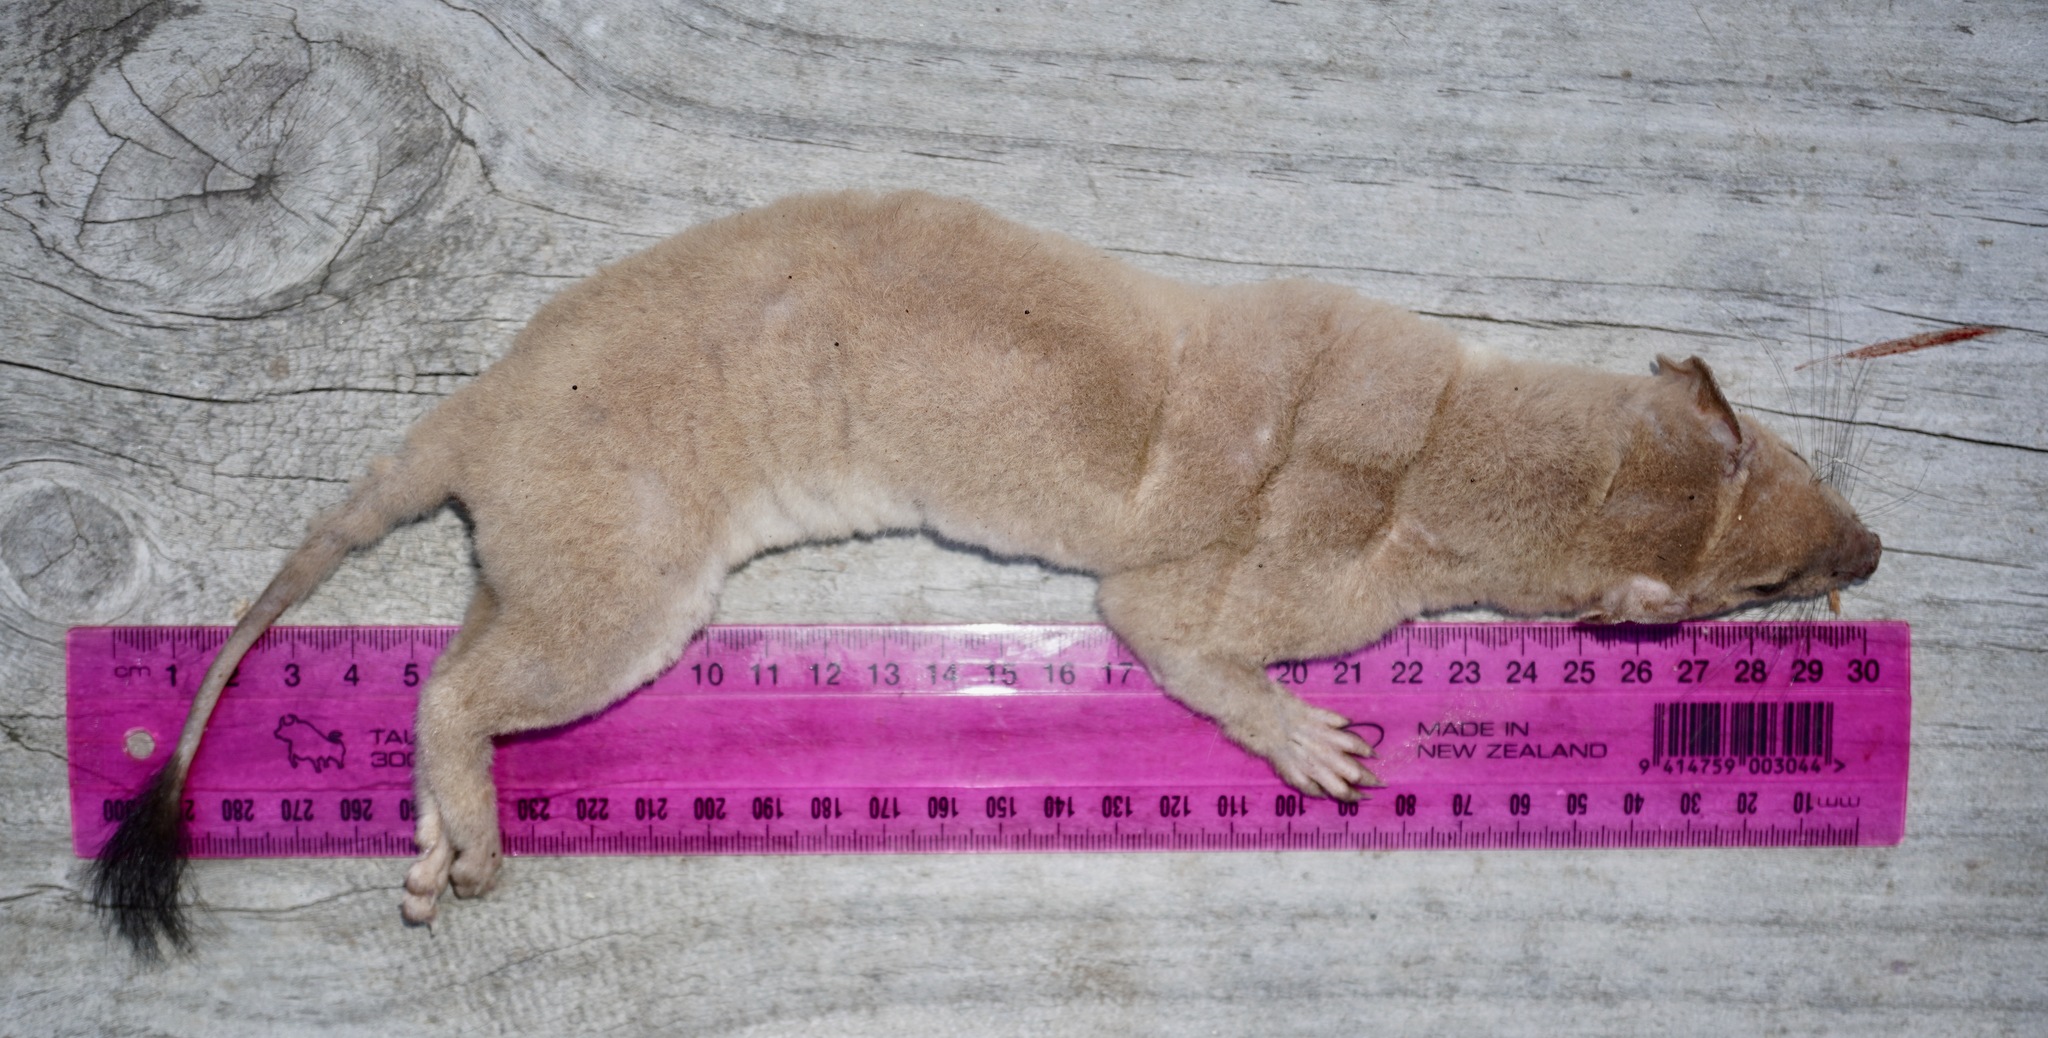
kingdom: Animalia
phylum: Chordata
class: Mammalia
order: Carnivora
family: Mustelidae
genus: Mustela
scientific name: Mustela erminea
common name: Stoat
